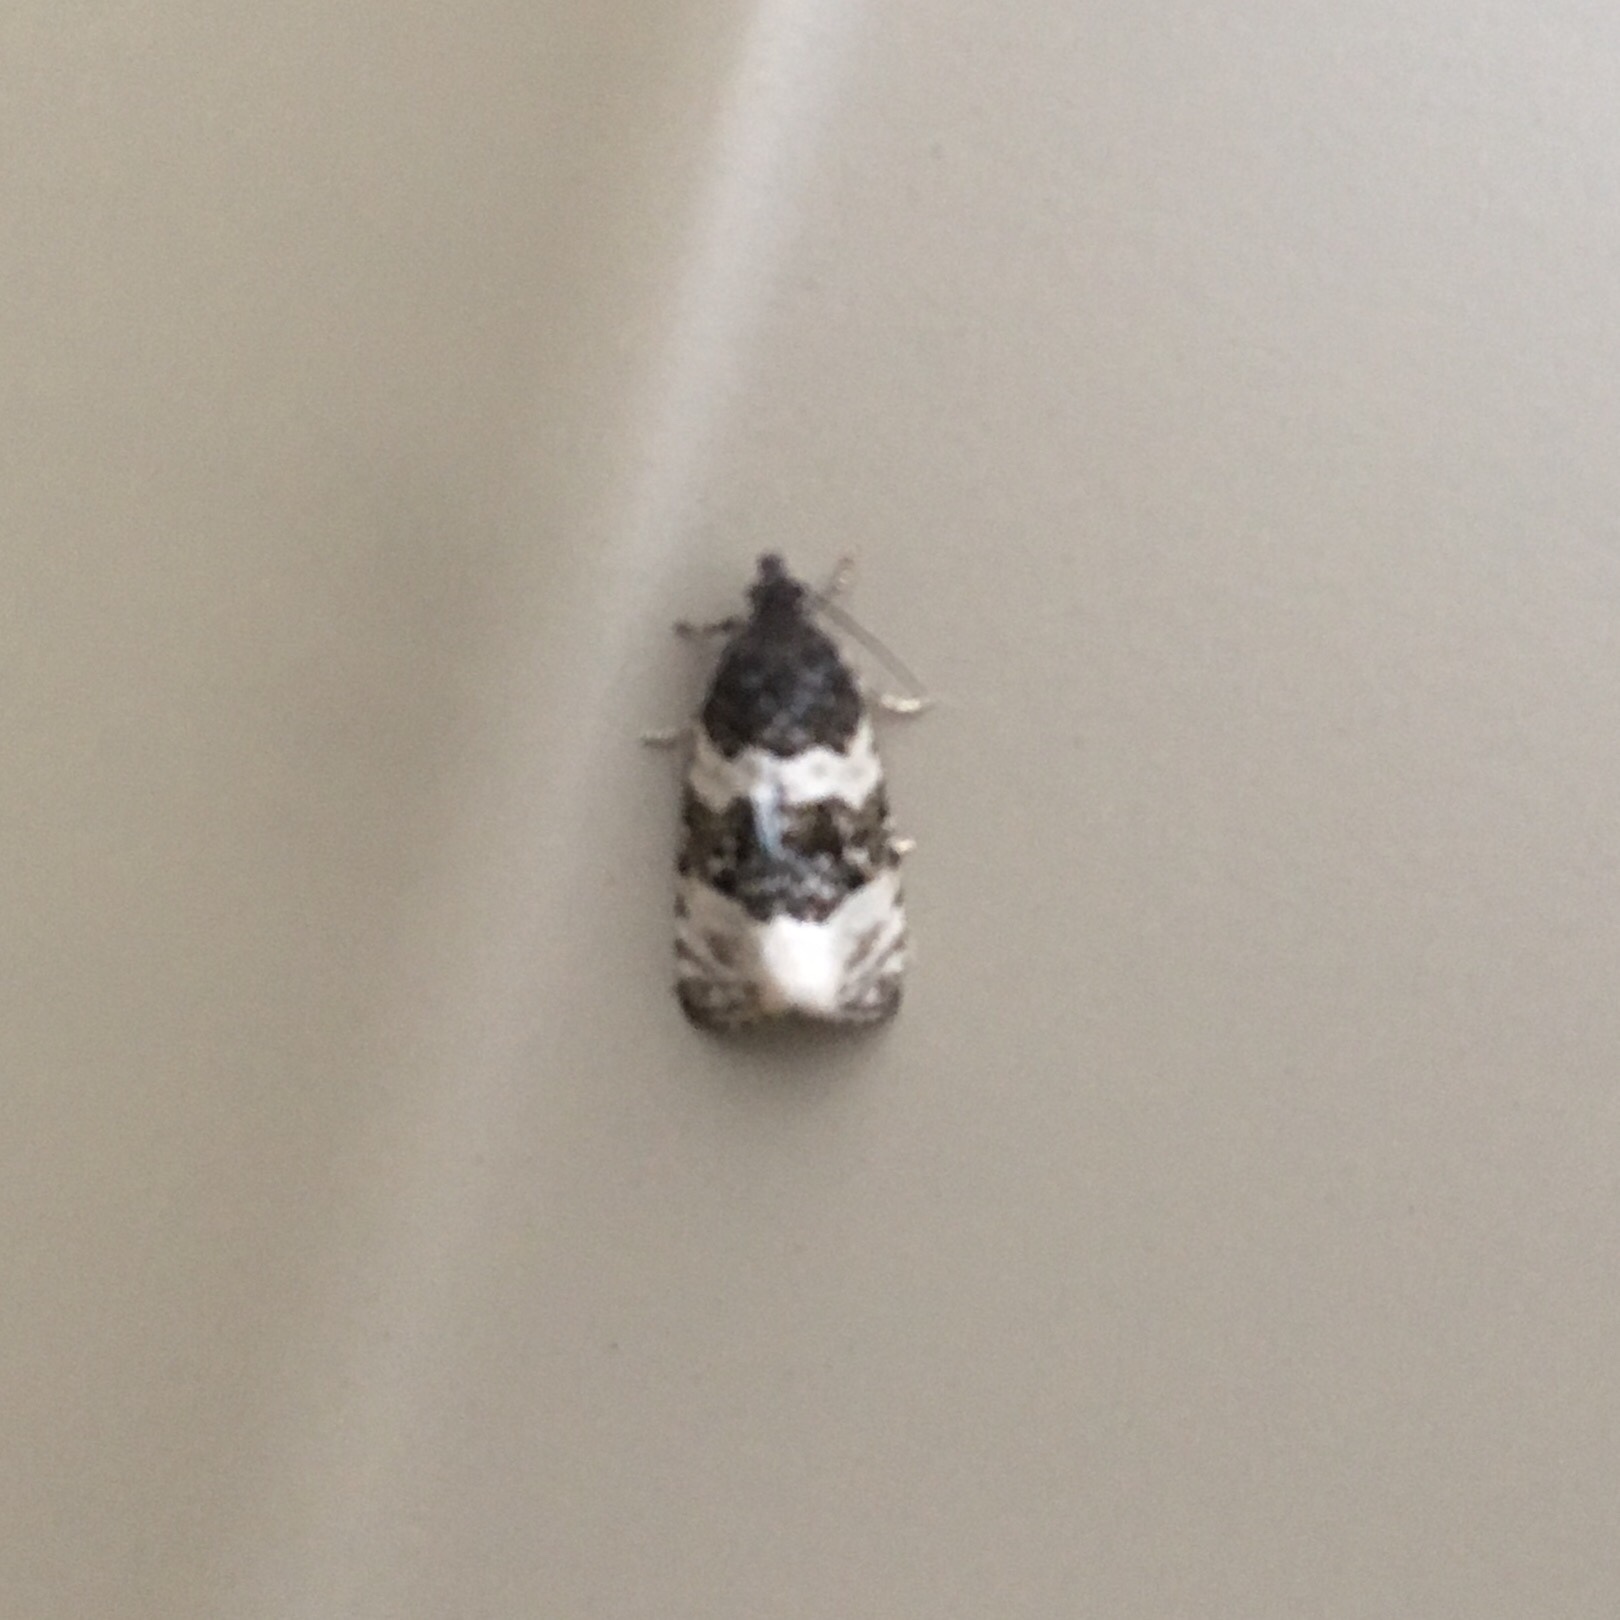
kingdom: Animalia
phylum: Arthropoda
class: Insecta
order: Lepidoptera
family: Tortricidae
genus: Olethreutes
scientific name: Olethreutes bipartitana
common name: Divided olethreutes moth
